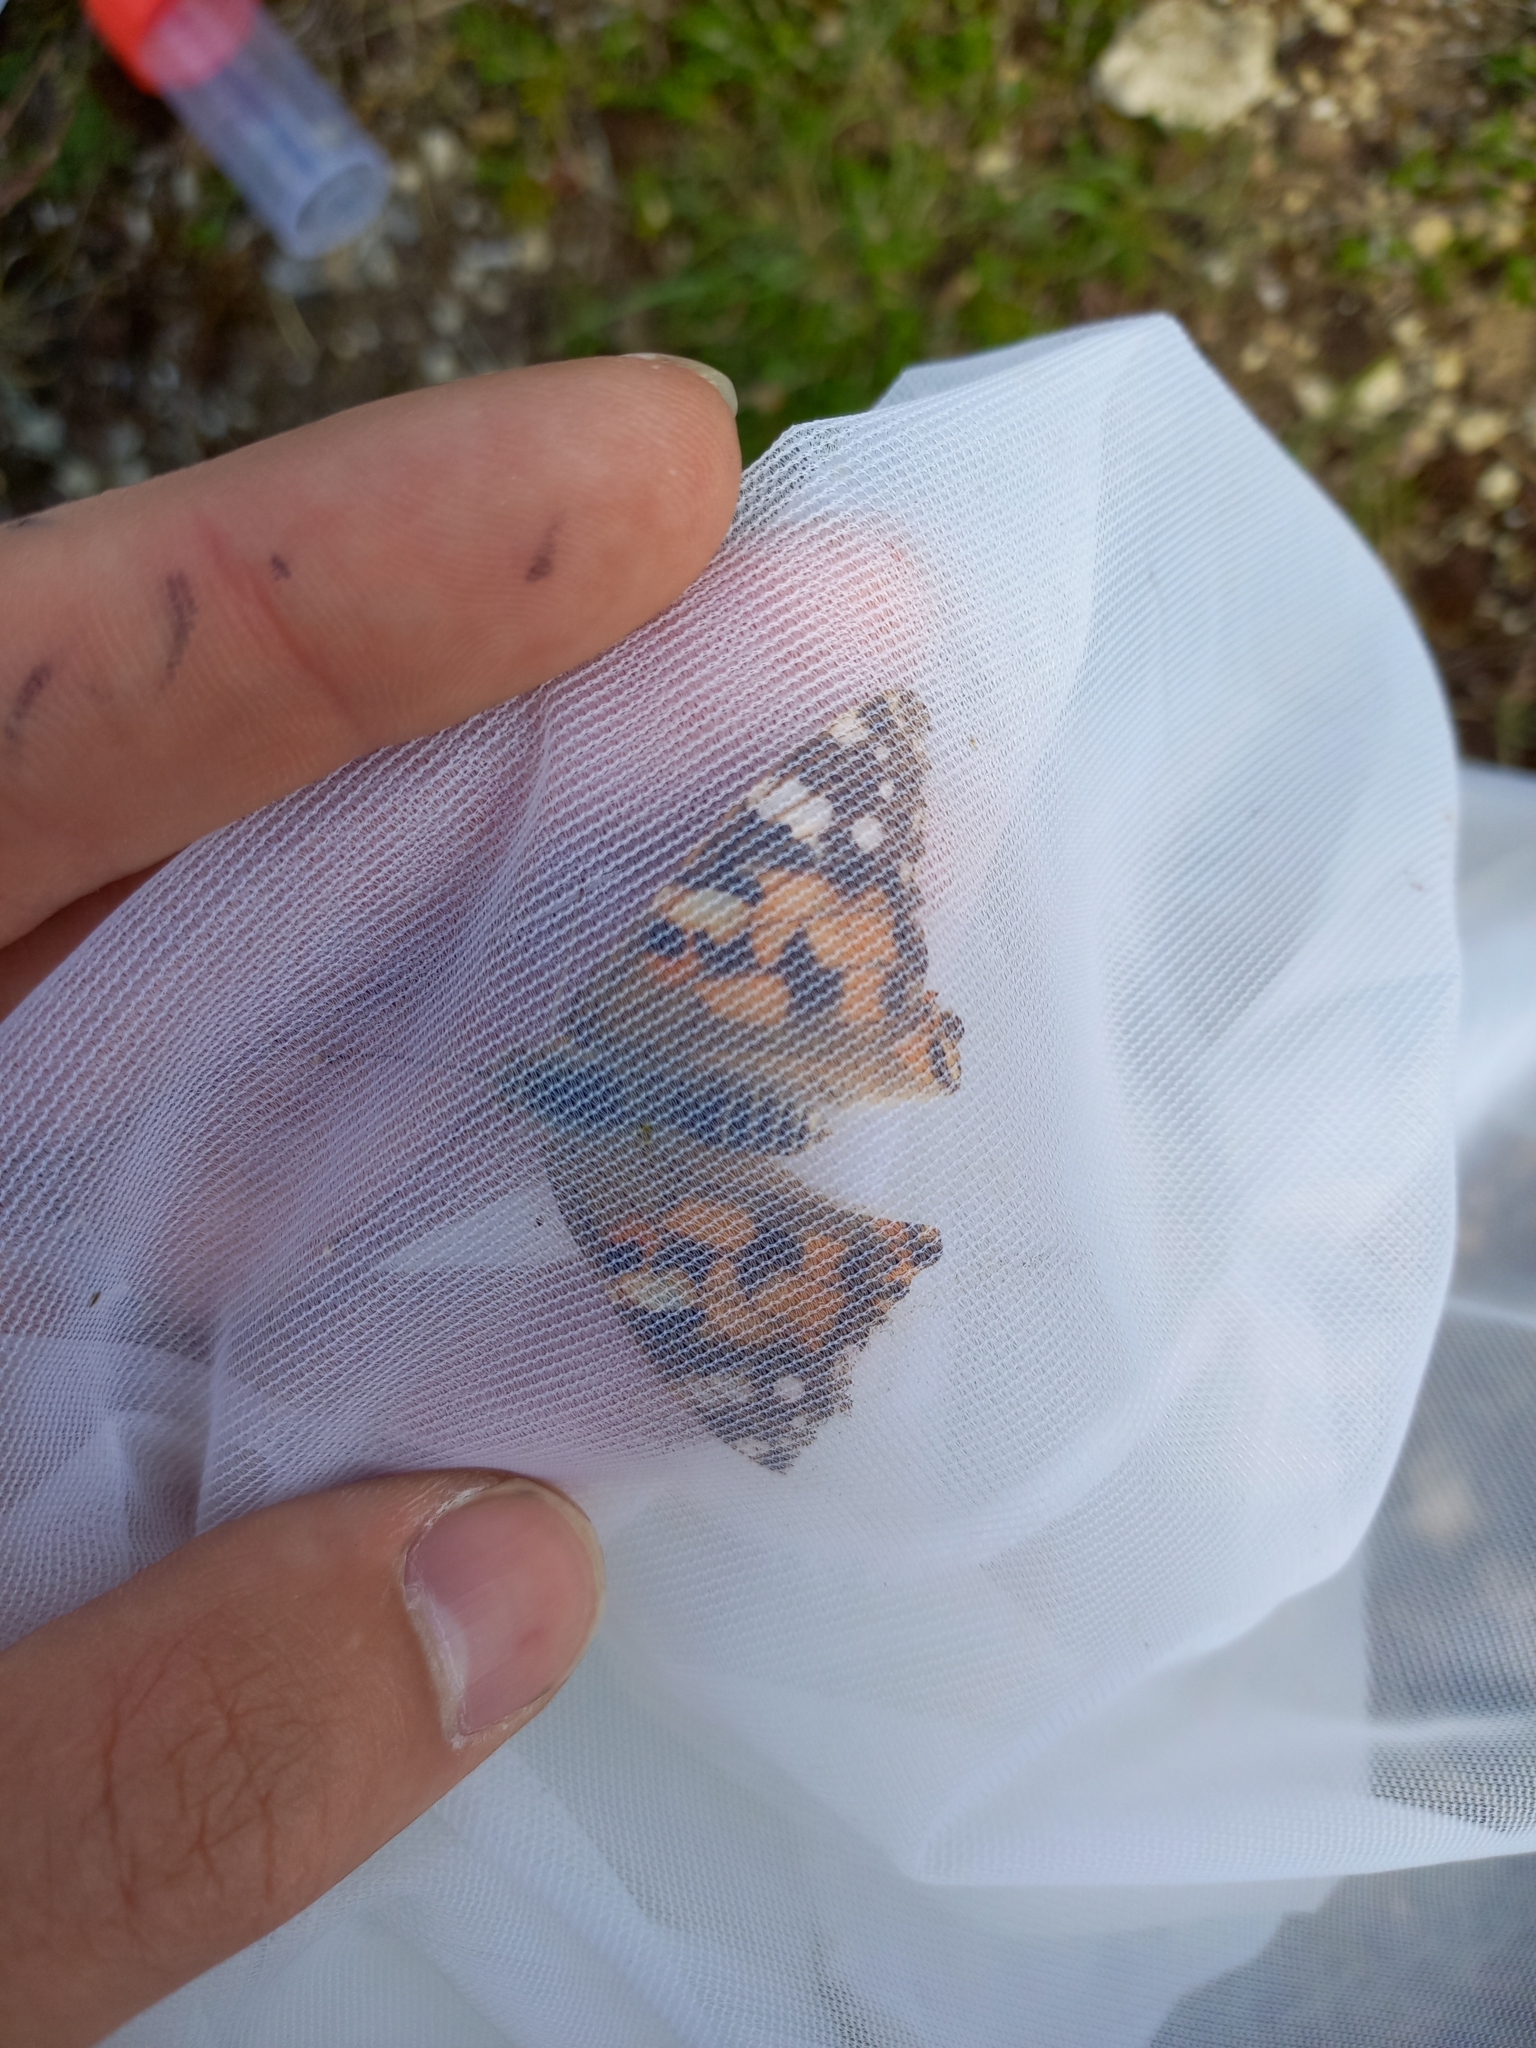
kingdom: Animalia
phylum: Arthropoda
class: Insecta
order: Lepidoptera
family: Nymphalidae
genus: Vanessa
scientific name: Vanessa cardui
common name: Painted lady
